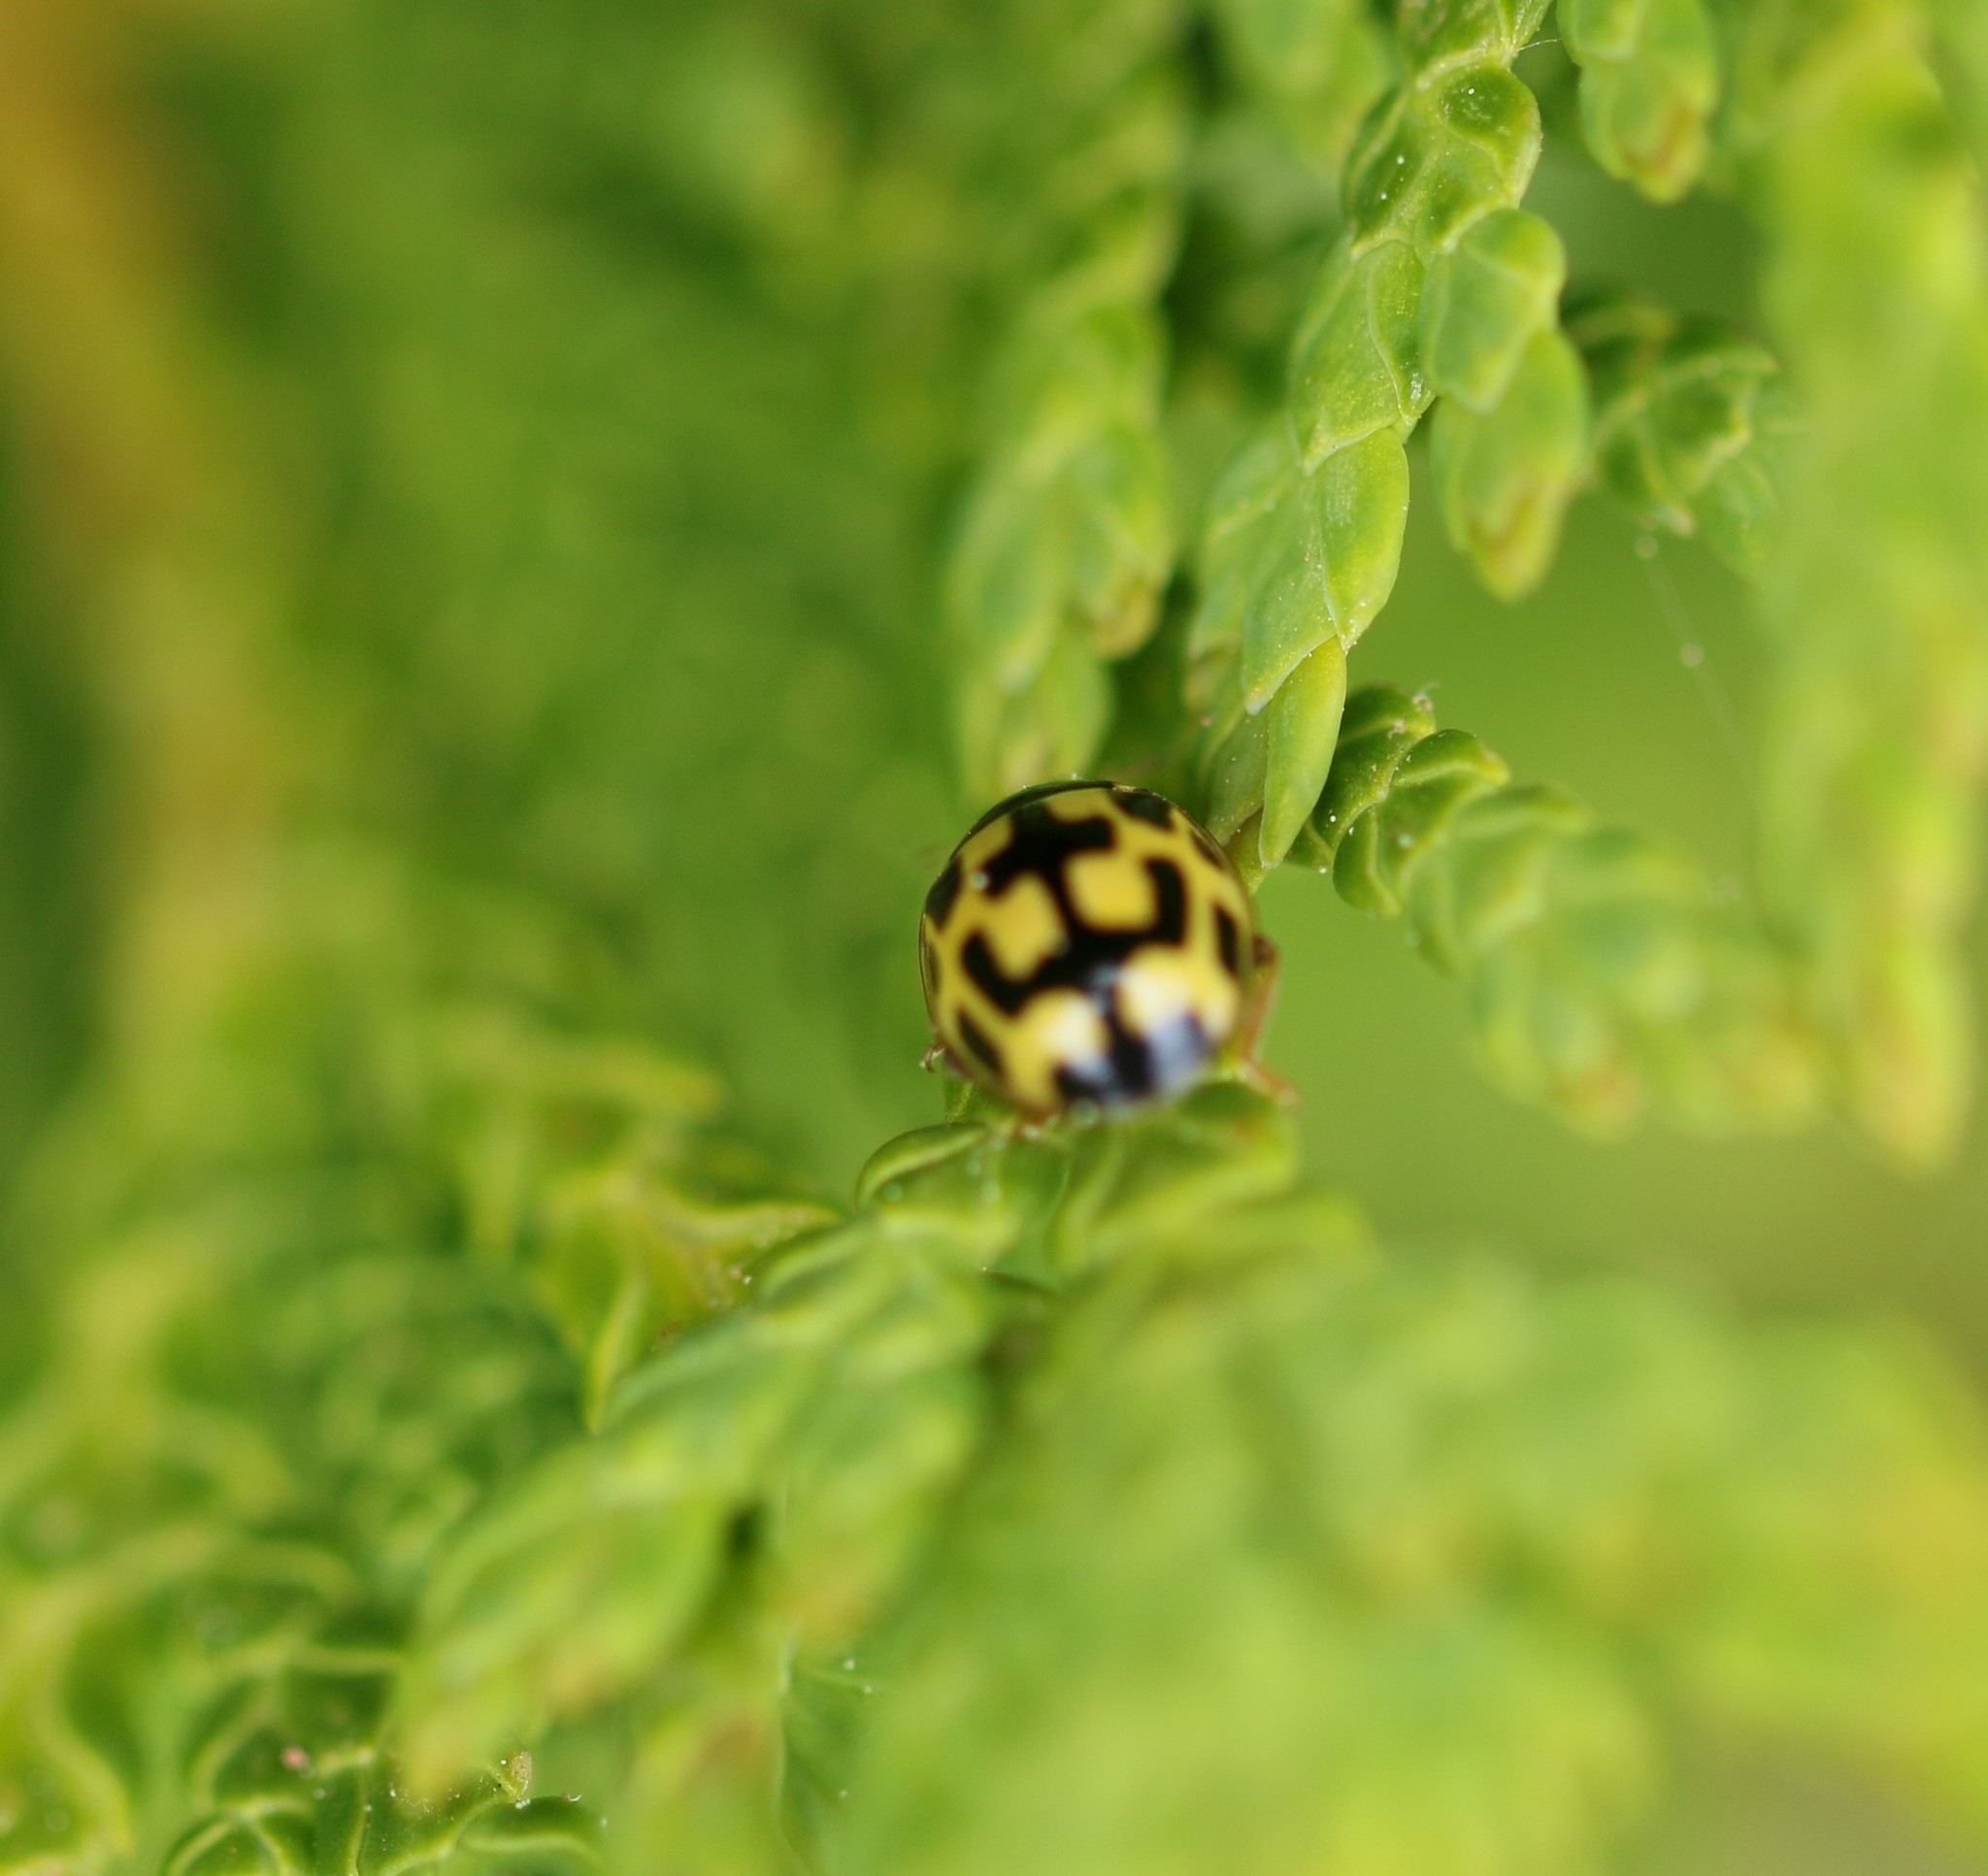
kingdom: Animalia
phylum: Arthropoda
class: Insecta
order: Coleoptera
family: Coccinellidae
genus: Propylaea
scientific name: Propylaea quatuordecimpunctata
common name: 14-spotted ladybird beetle
